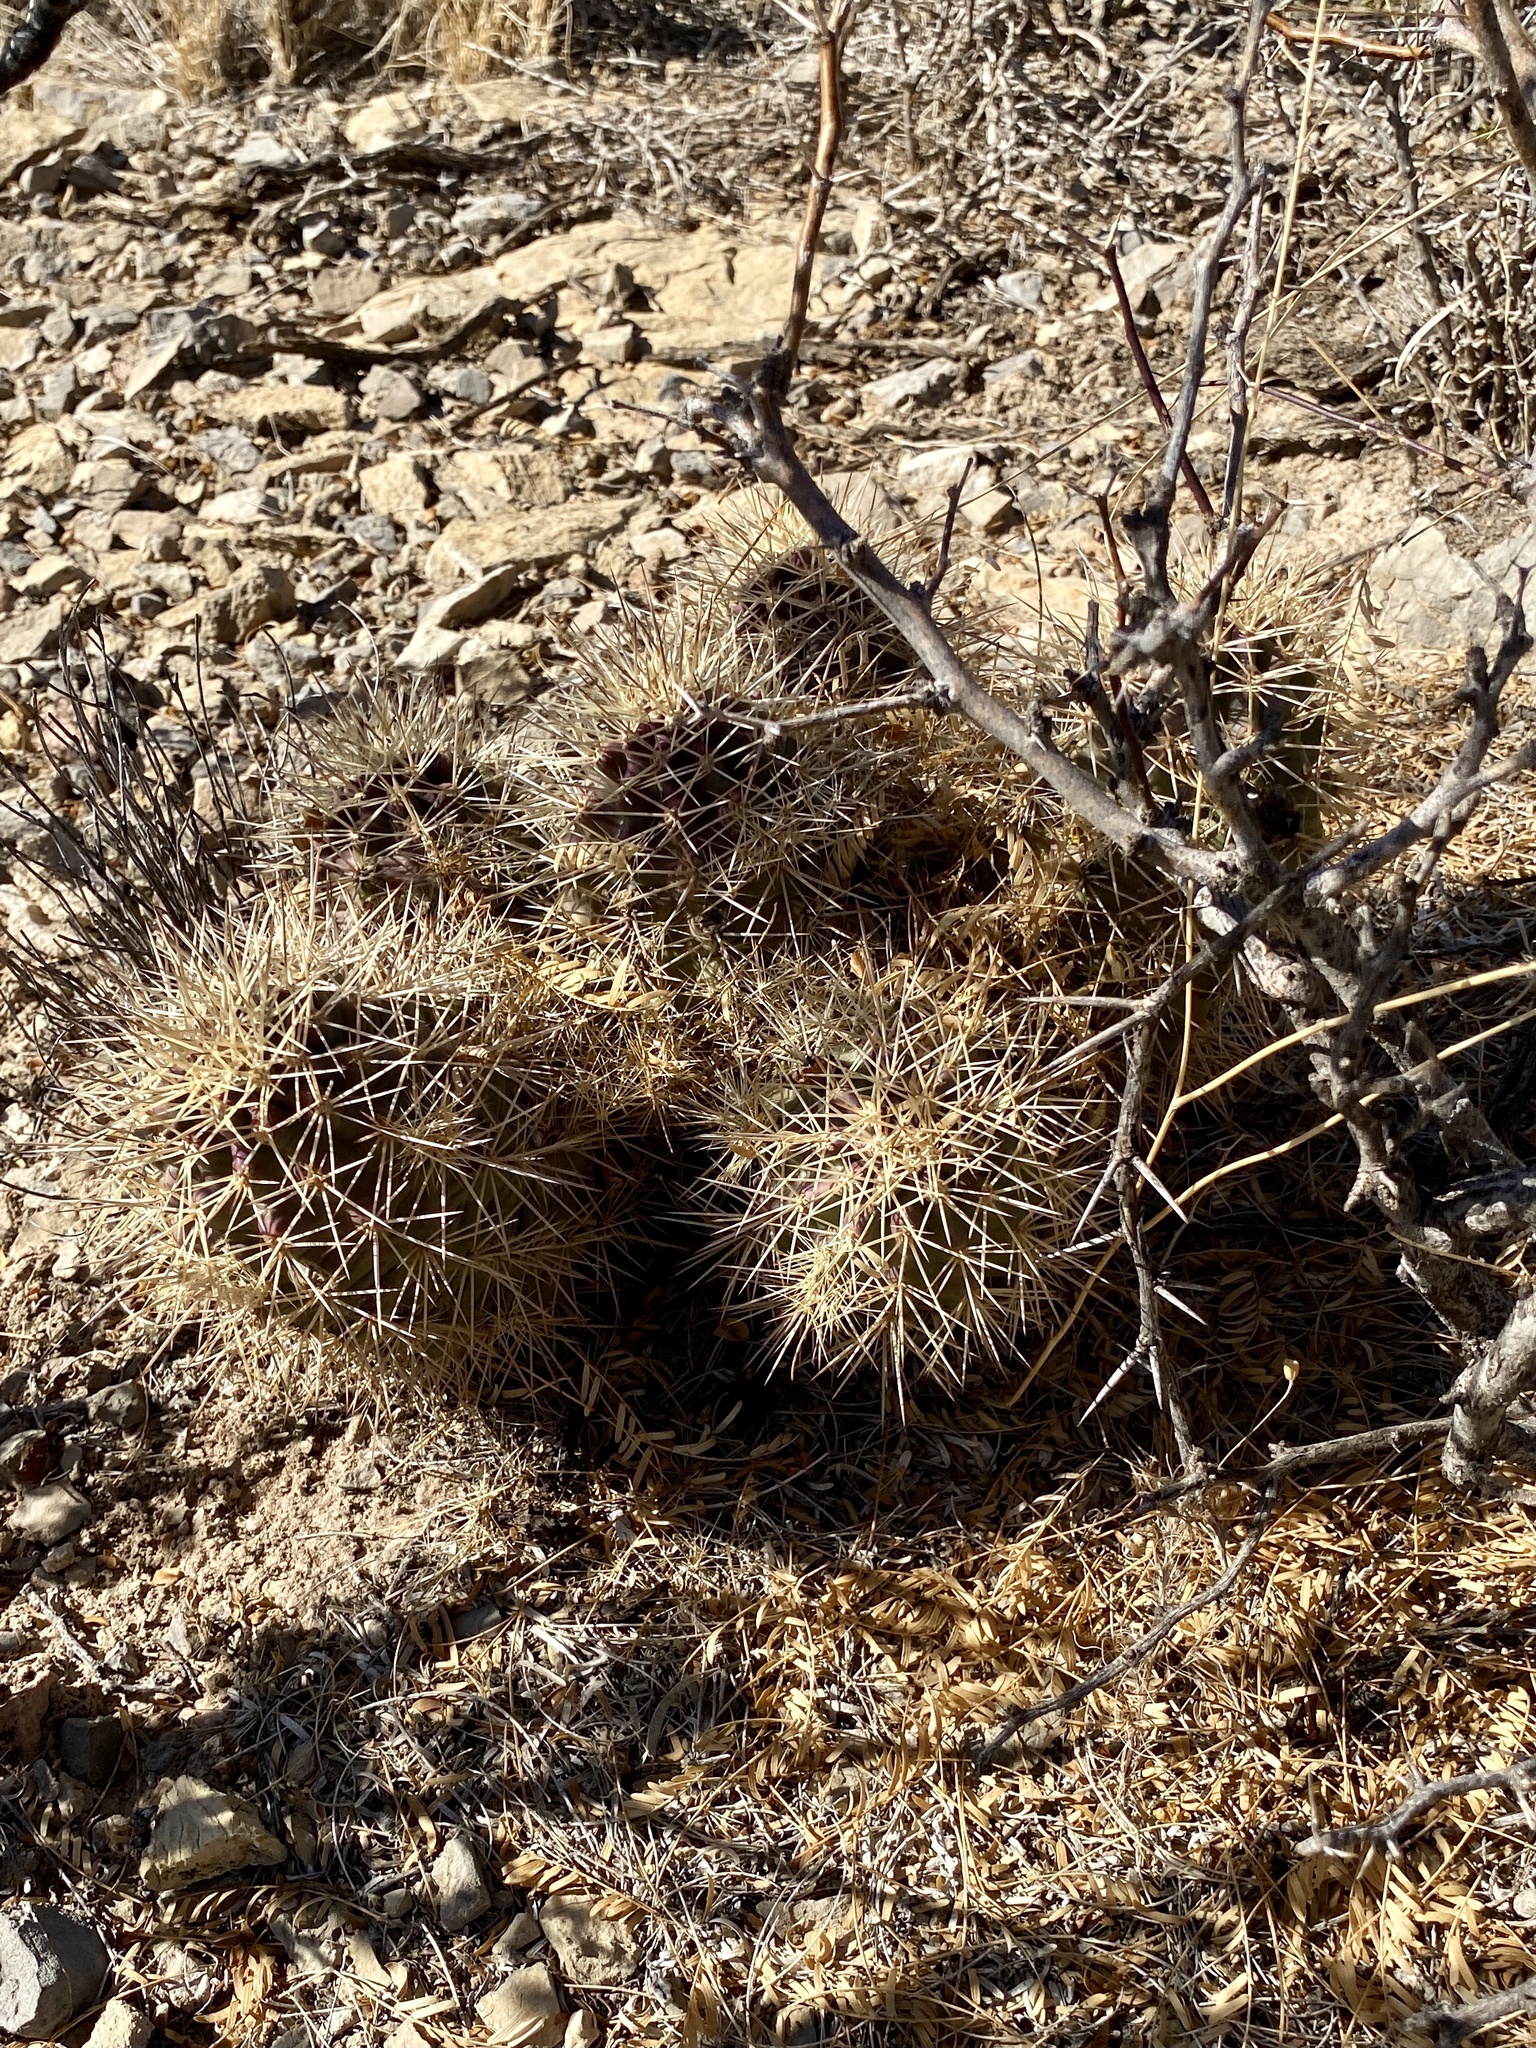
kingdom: Plantae
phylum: Tracheophyta
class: Magnoliopsida
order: Caryophyllales
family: Cactaceae
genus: Echinocereus
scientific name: Echinocereus coccineus
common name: Scarlet hedgehog cactus
